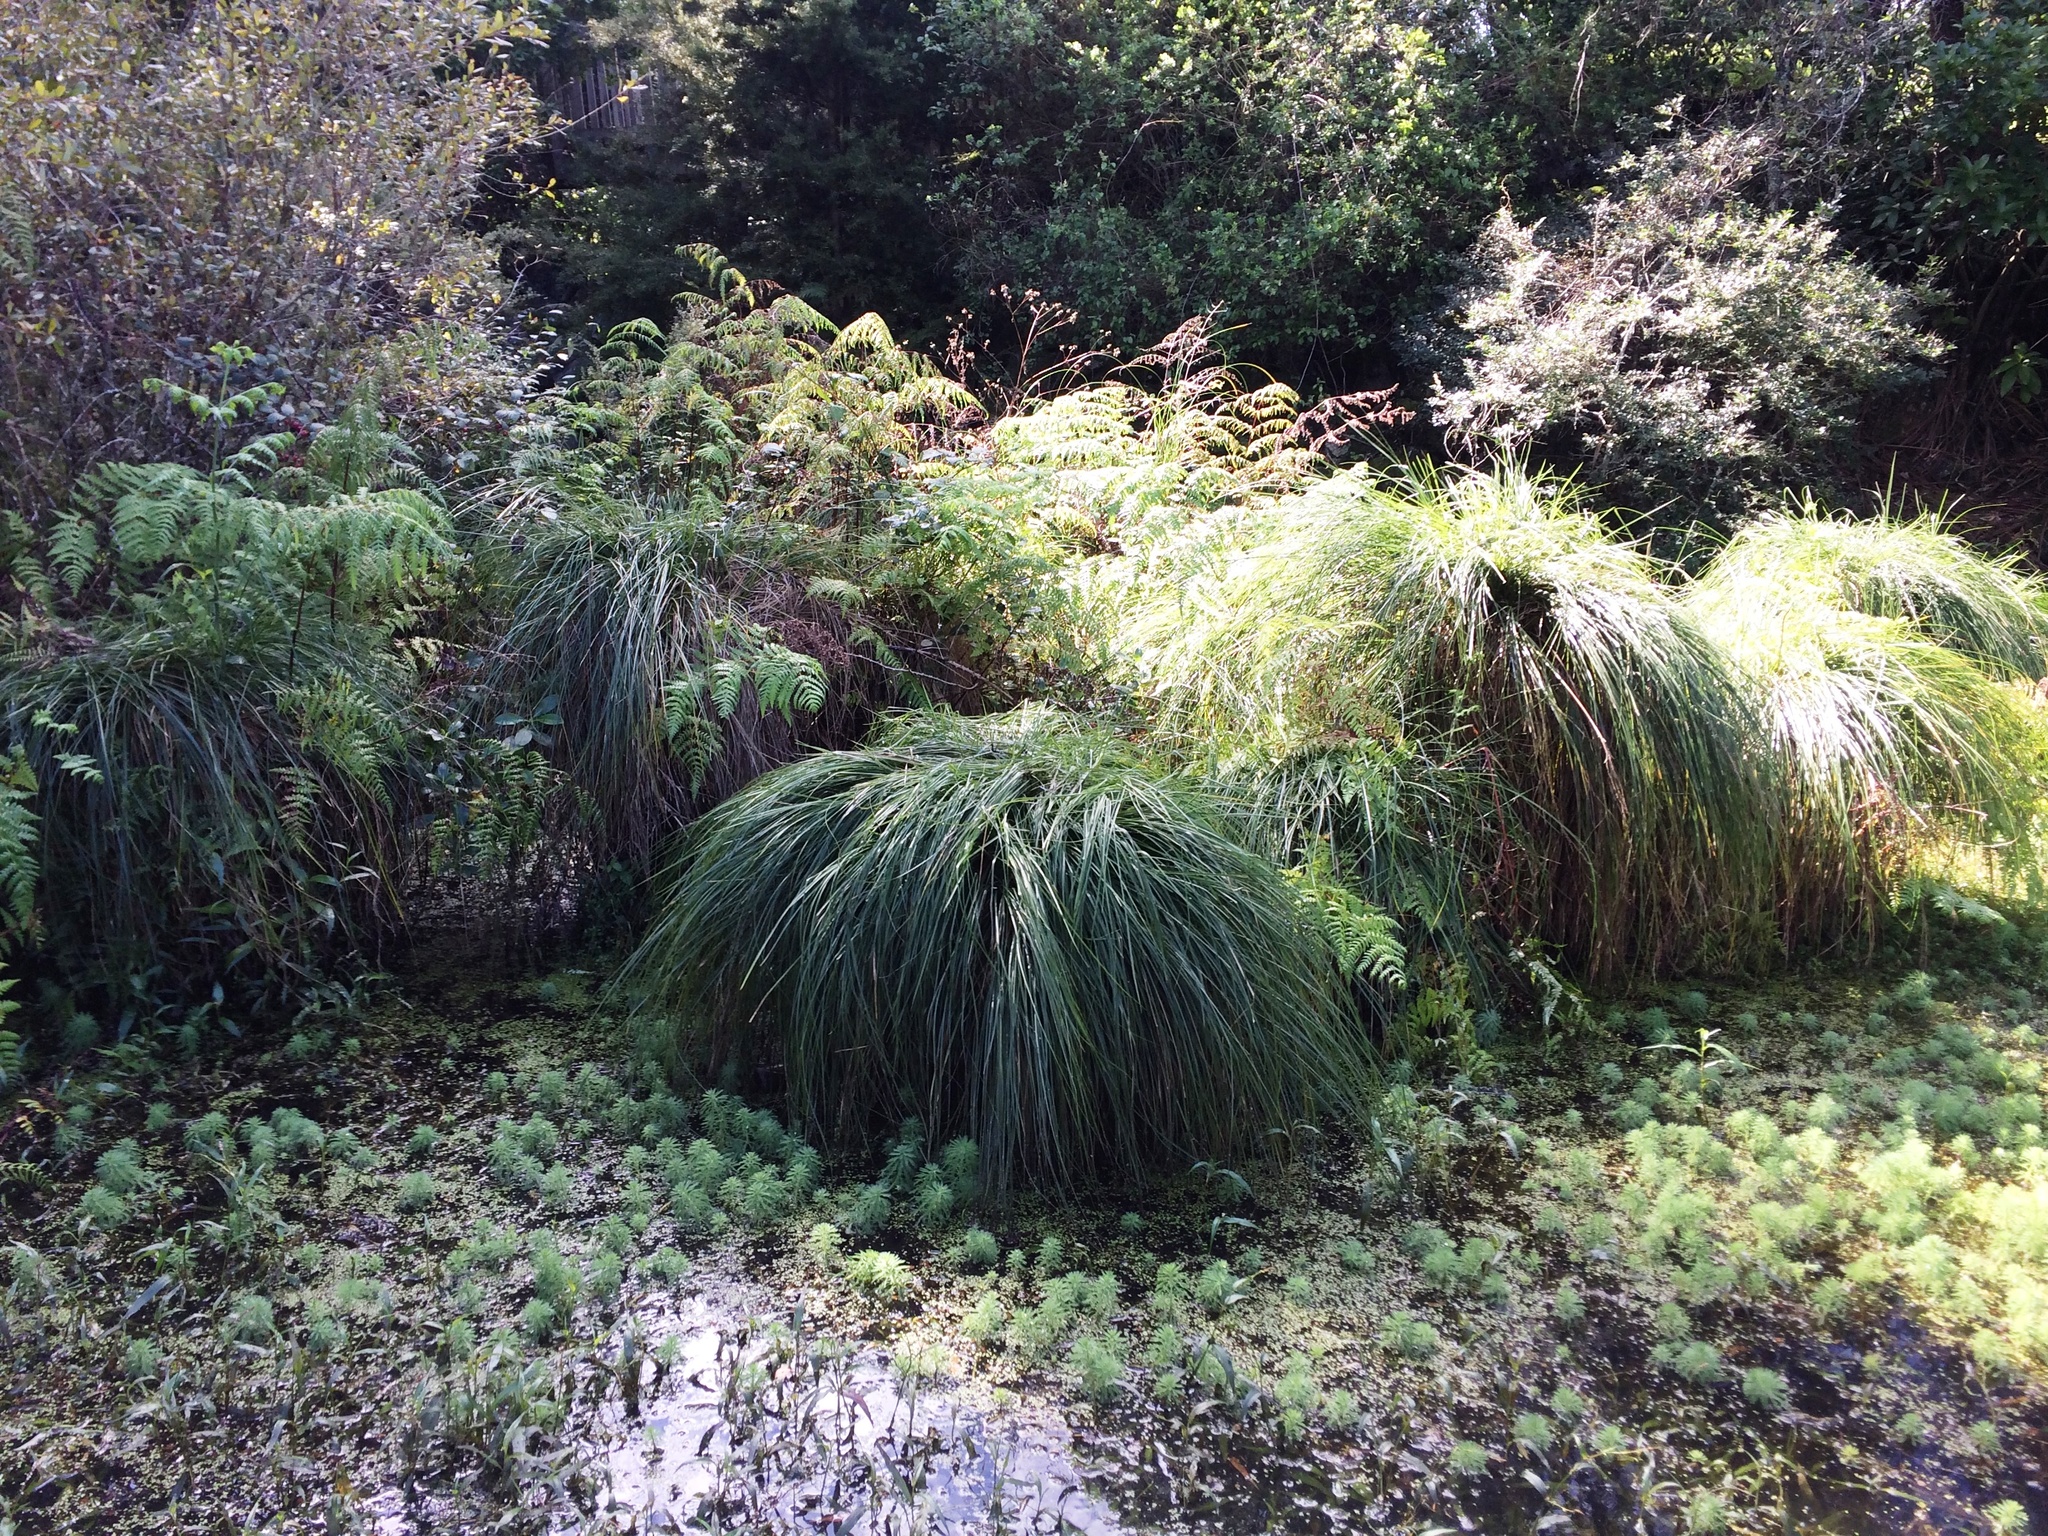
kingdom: Plantae
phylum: Tracheophyta
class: Liliopsida
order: Poales
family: Cyperaceae
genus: Carex
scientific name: Carex secta
